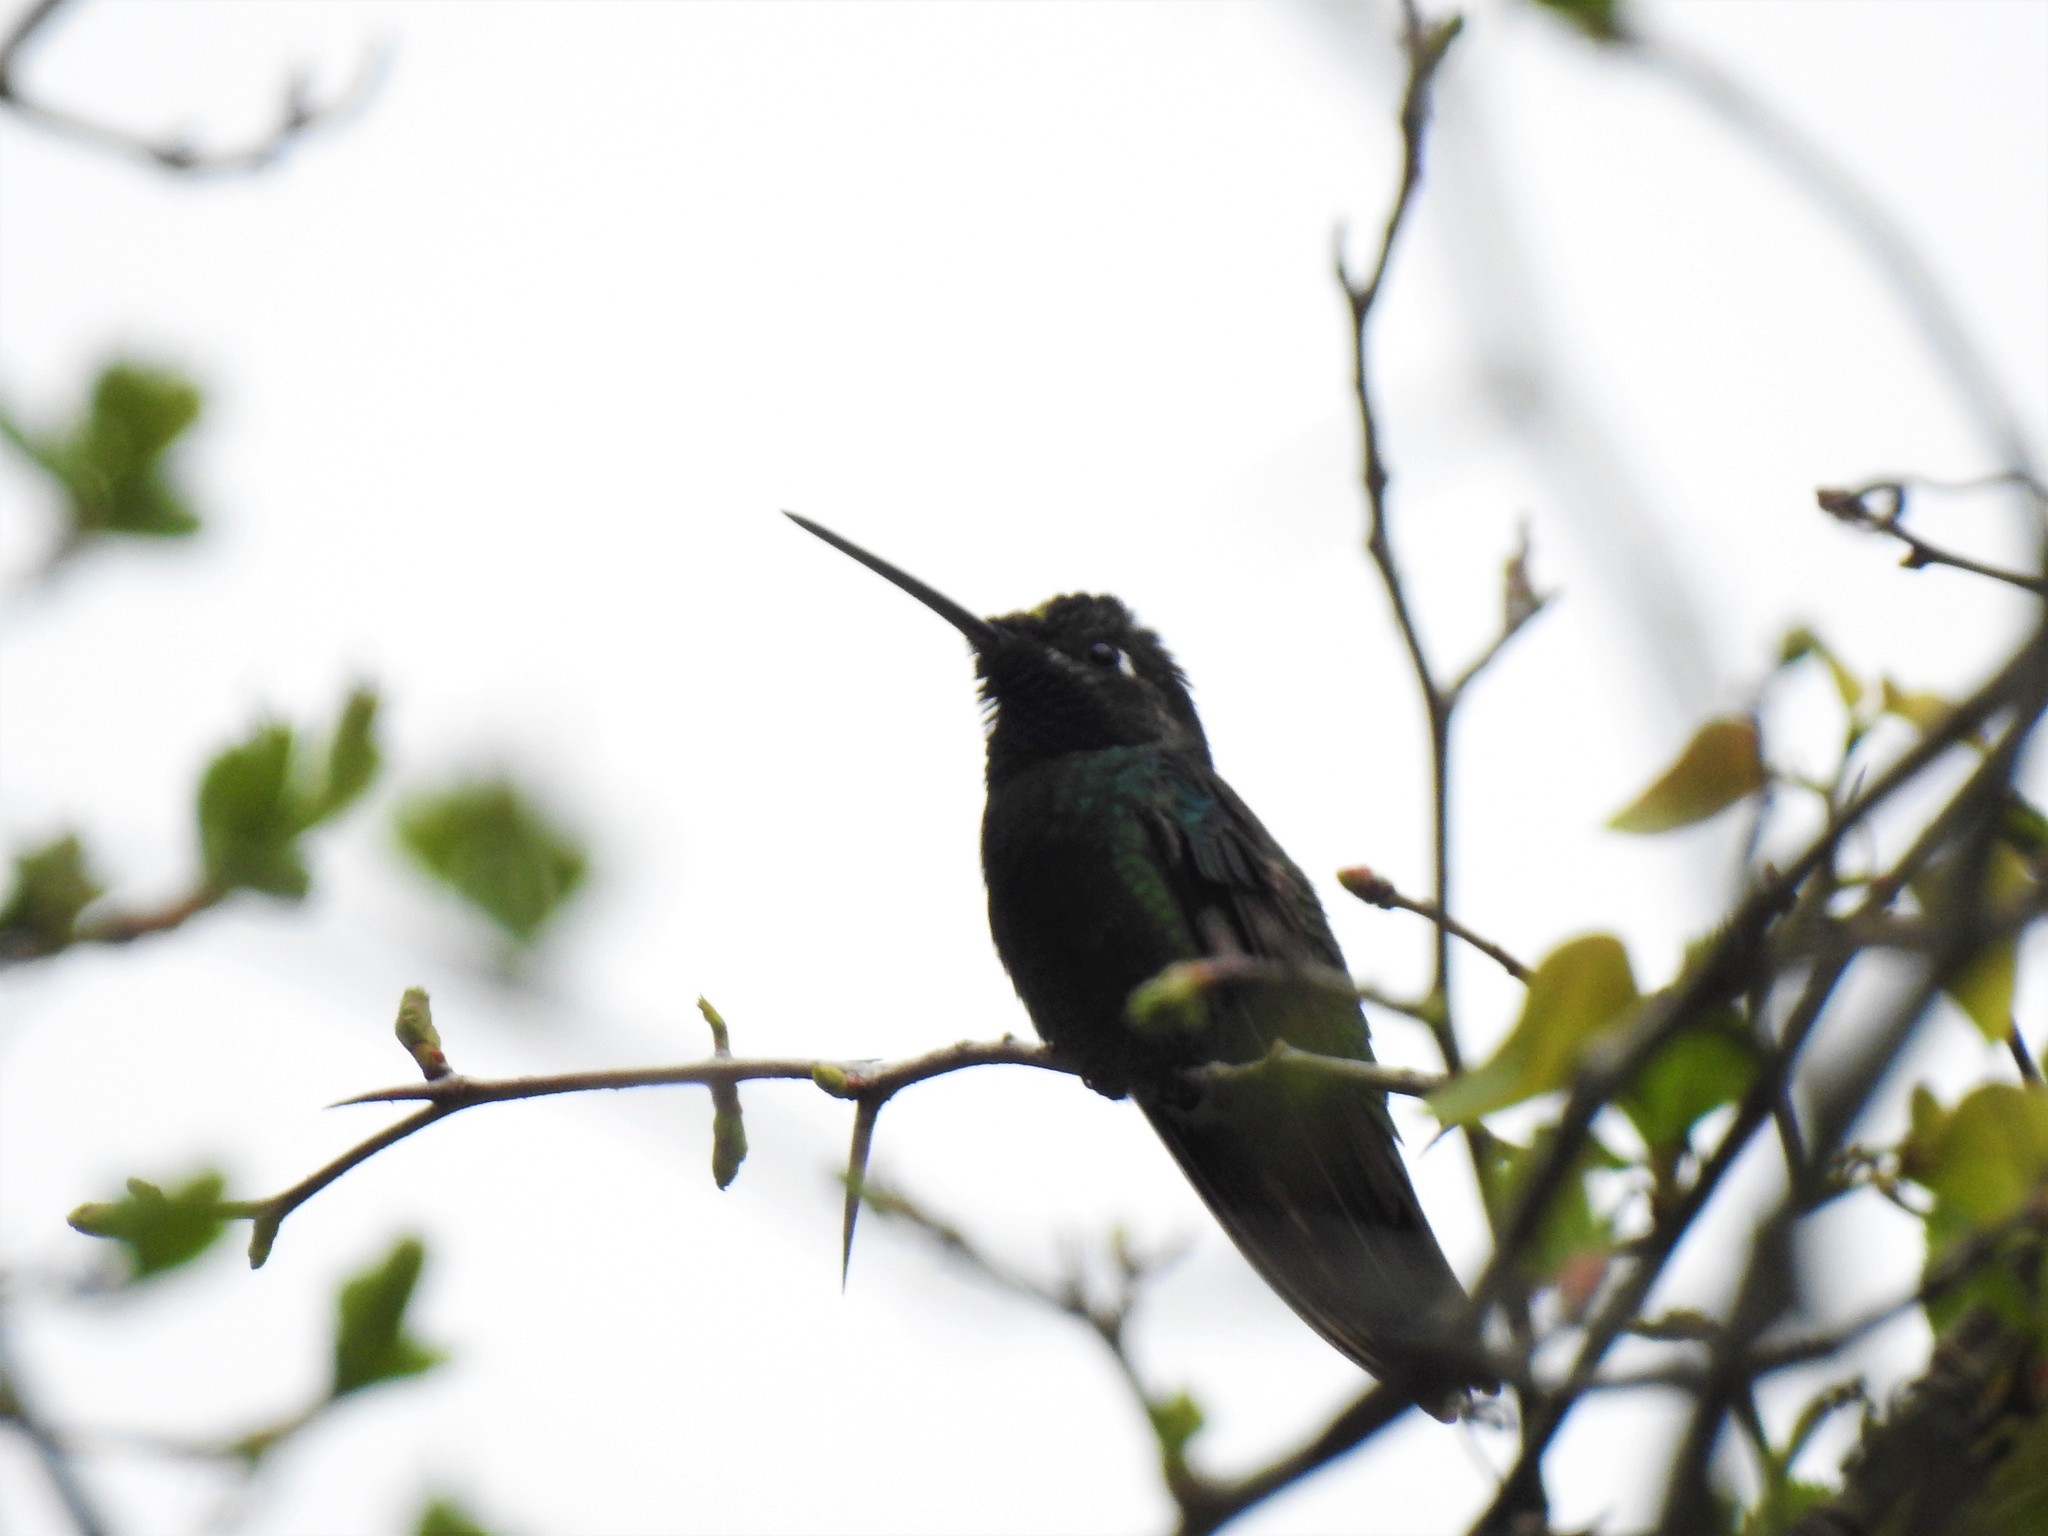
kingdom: Animalia
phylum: Chordata
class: Aves
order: Apodiformes
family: Trochilidae
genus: Eugenes
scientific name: Eugenes fulgens
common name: Magnificent hummingbird
